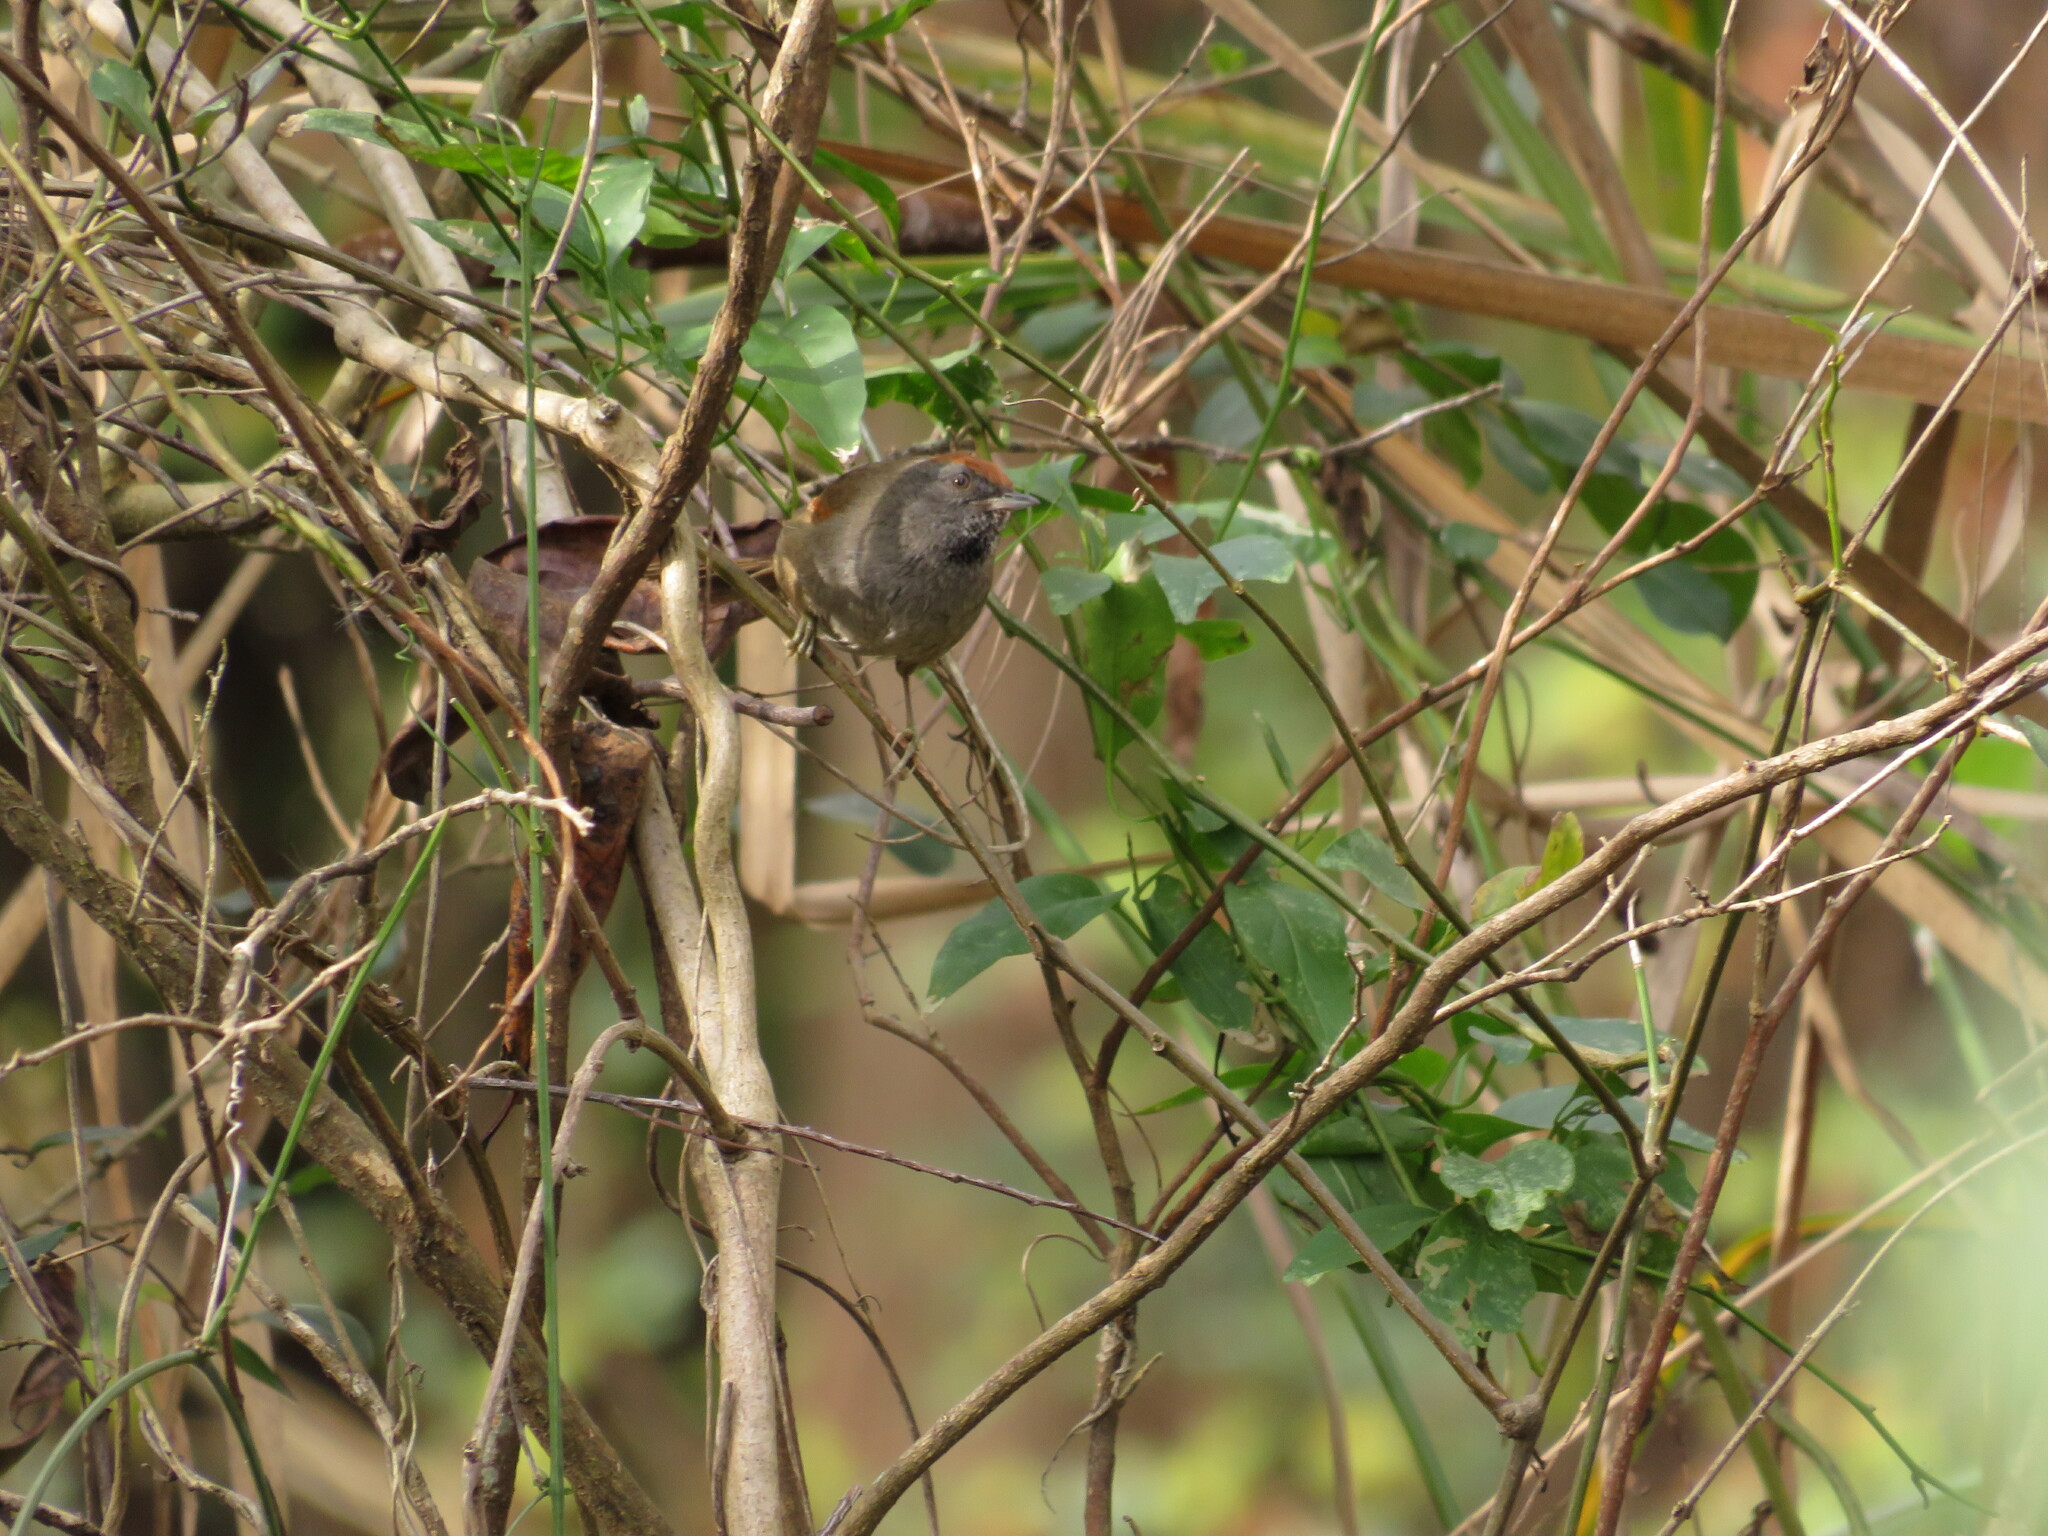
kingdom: Animalia
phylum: Chordata
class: Aves
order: Passeriformes
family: Furnariidae
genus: Synallaxis
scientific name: Synallaxis spixi
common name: Spix's spinetail
